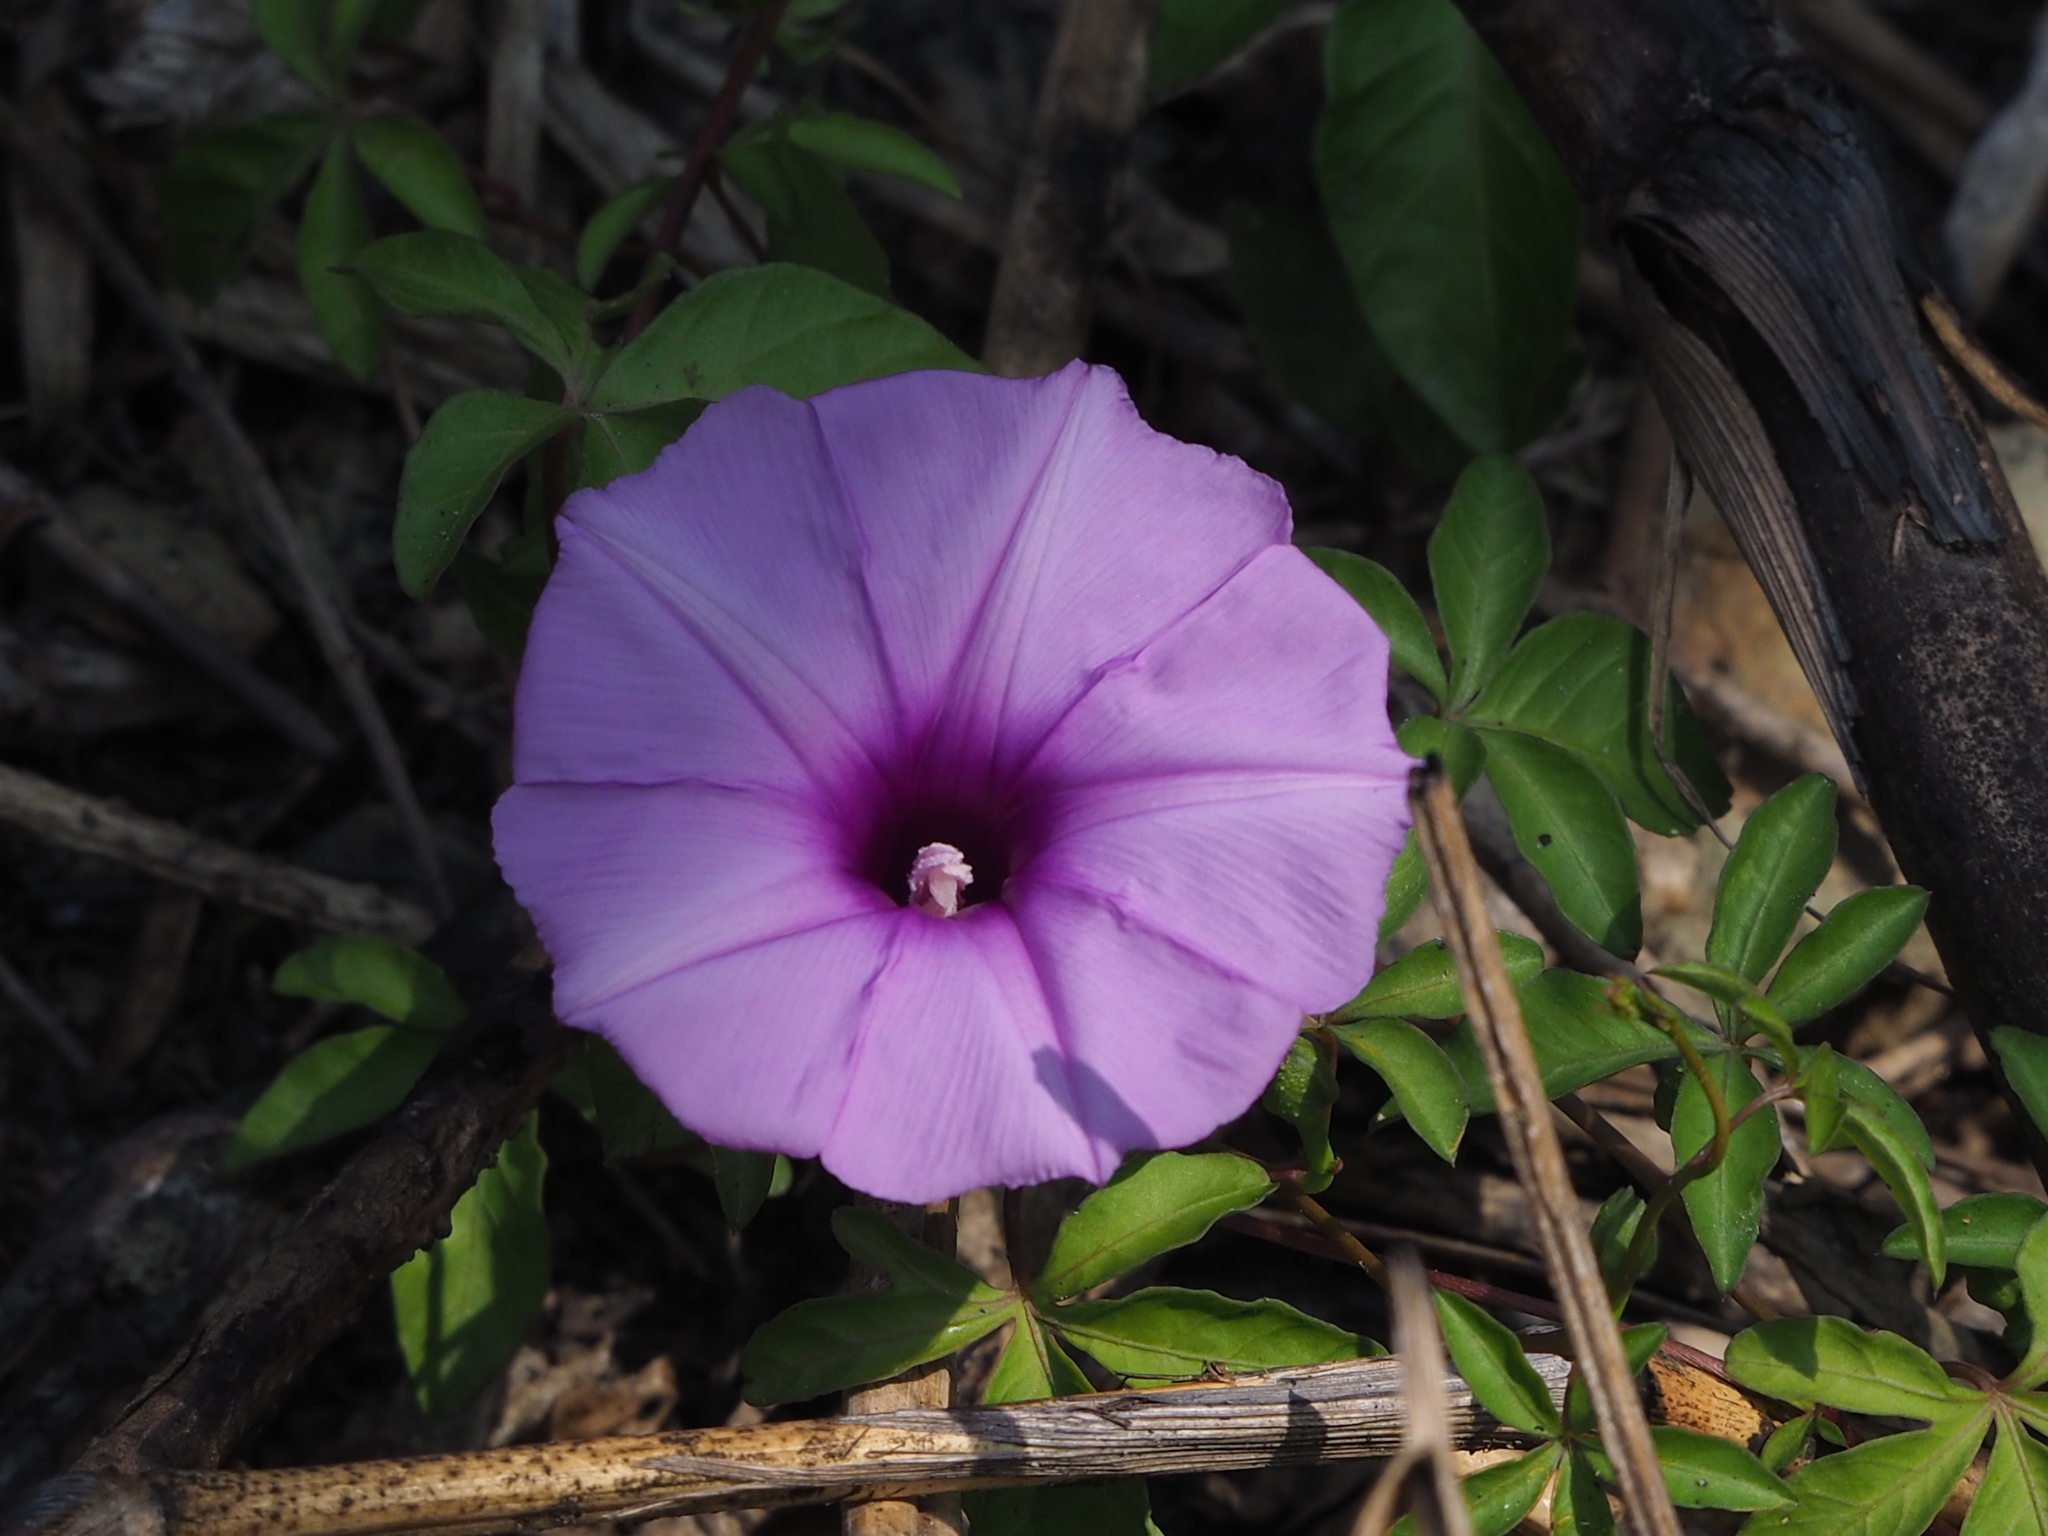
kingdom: Plantae
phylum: Tracheophyta
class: Magnoliopsida
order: Solanales
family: Convolvulaceae
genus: Ipomoea
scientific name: Ipomoea cairica
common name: Mile a minute vine
